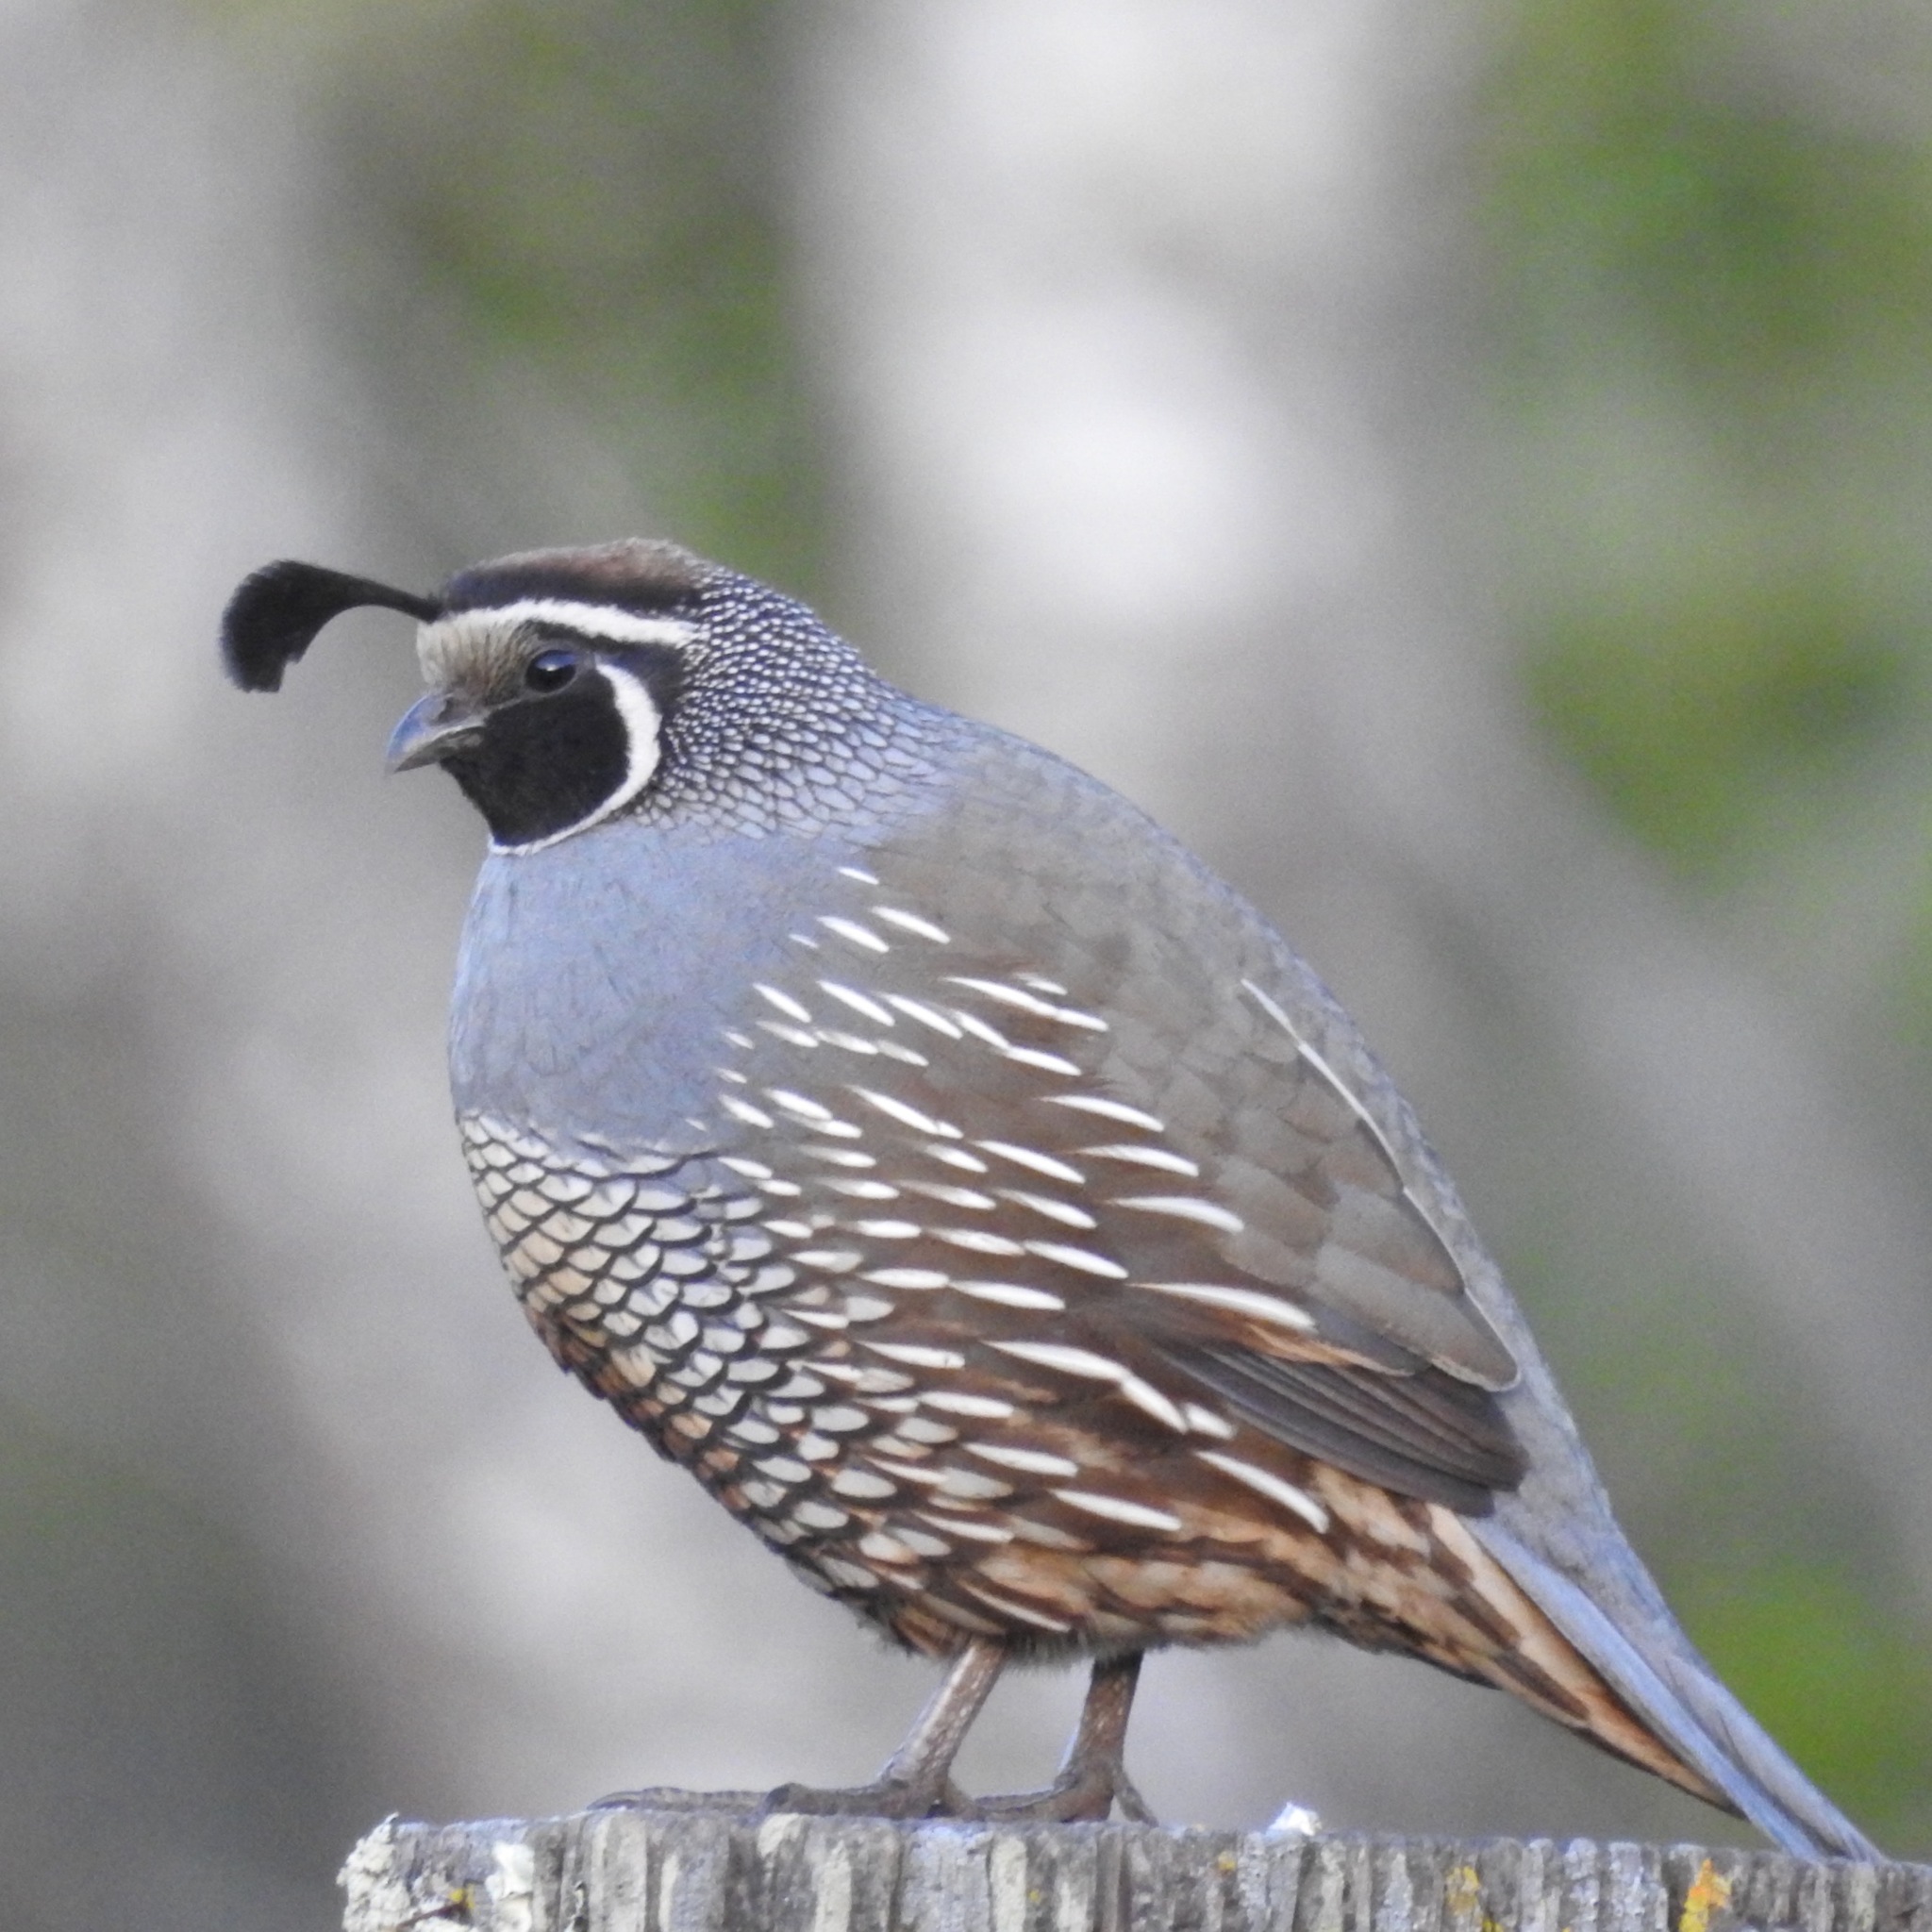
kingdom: Animalia
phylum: Chordata
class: Aves
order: Galliformes
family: Odontophoridae
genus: Callipepla
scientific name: Callipepla californica
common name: California quail
